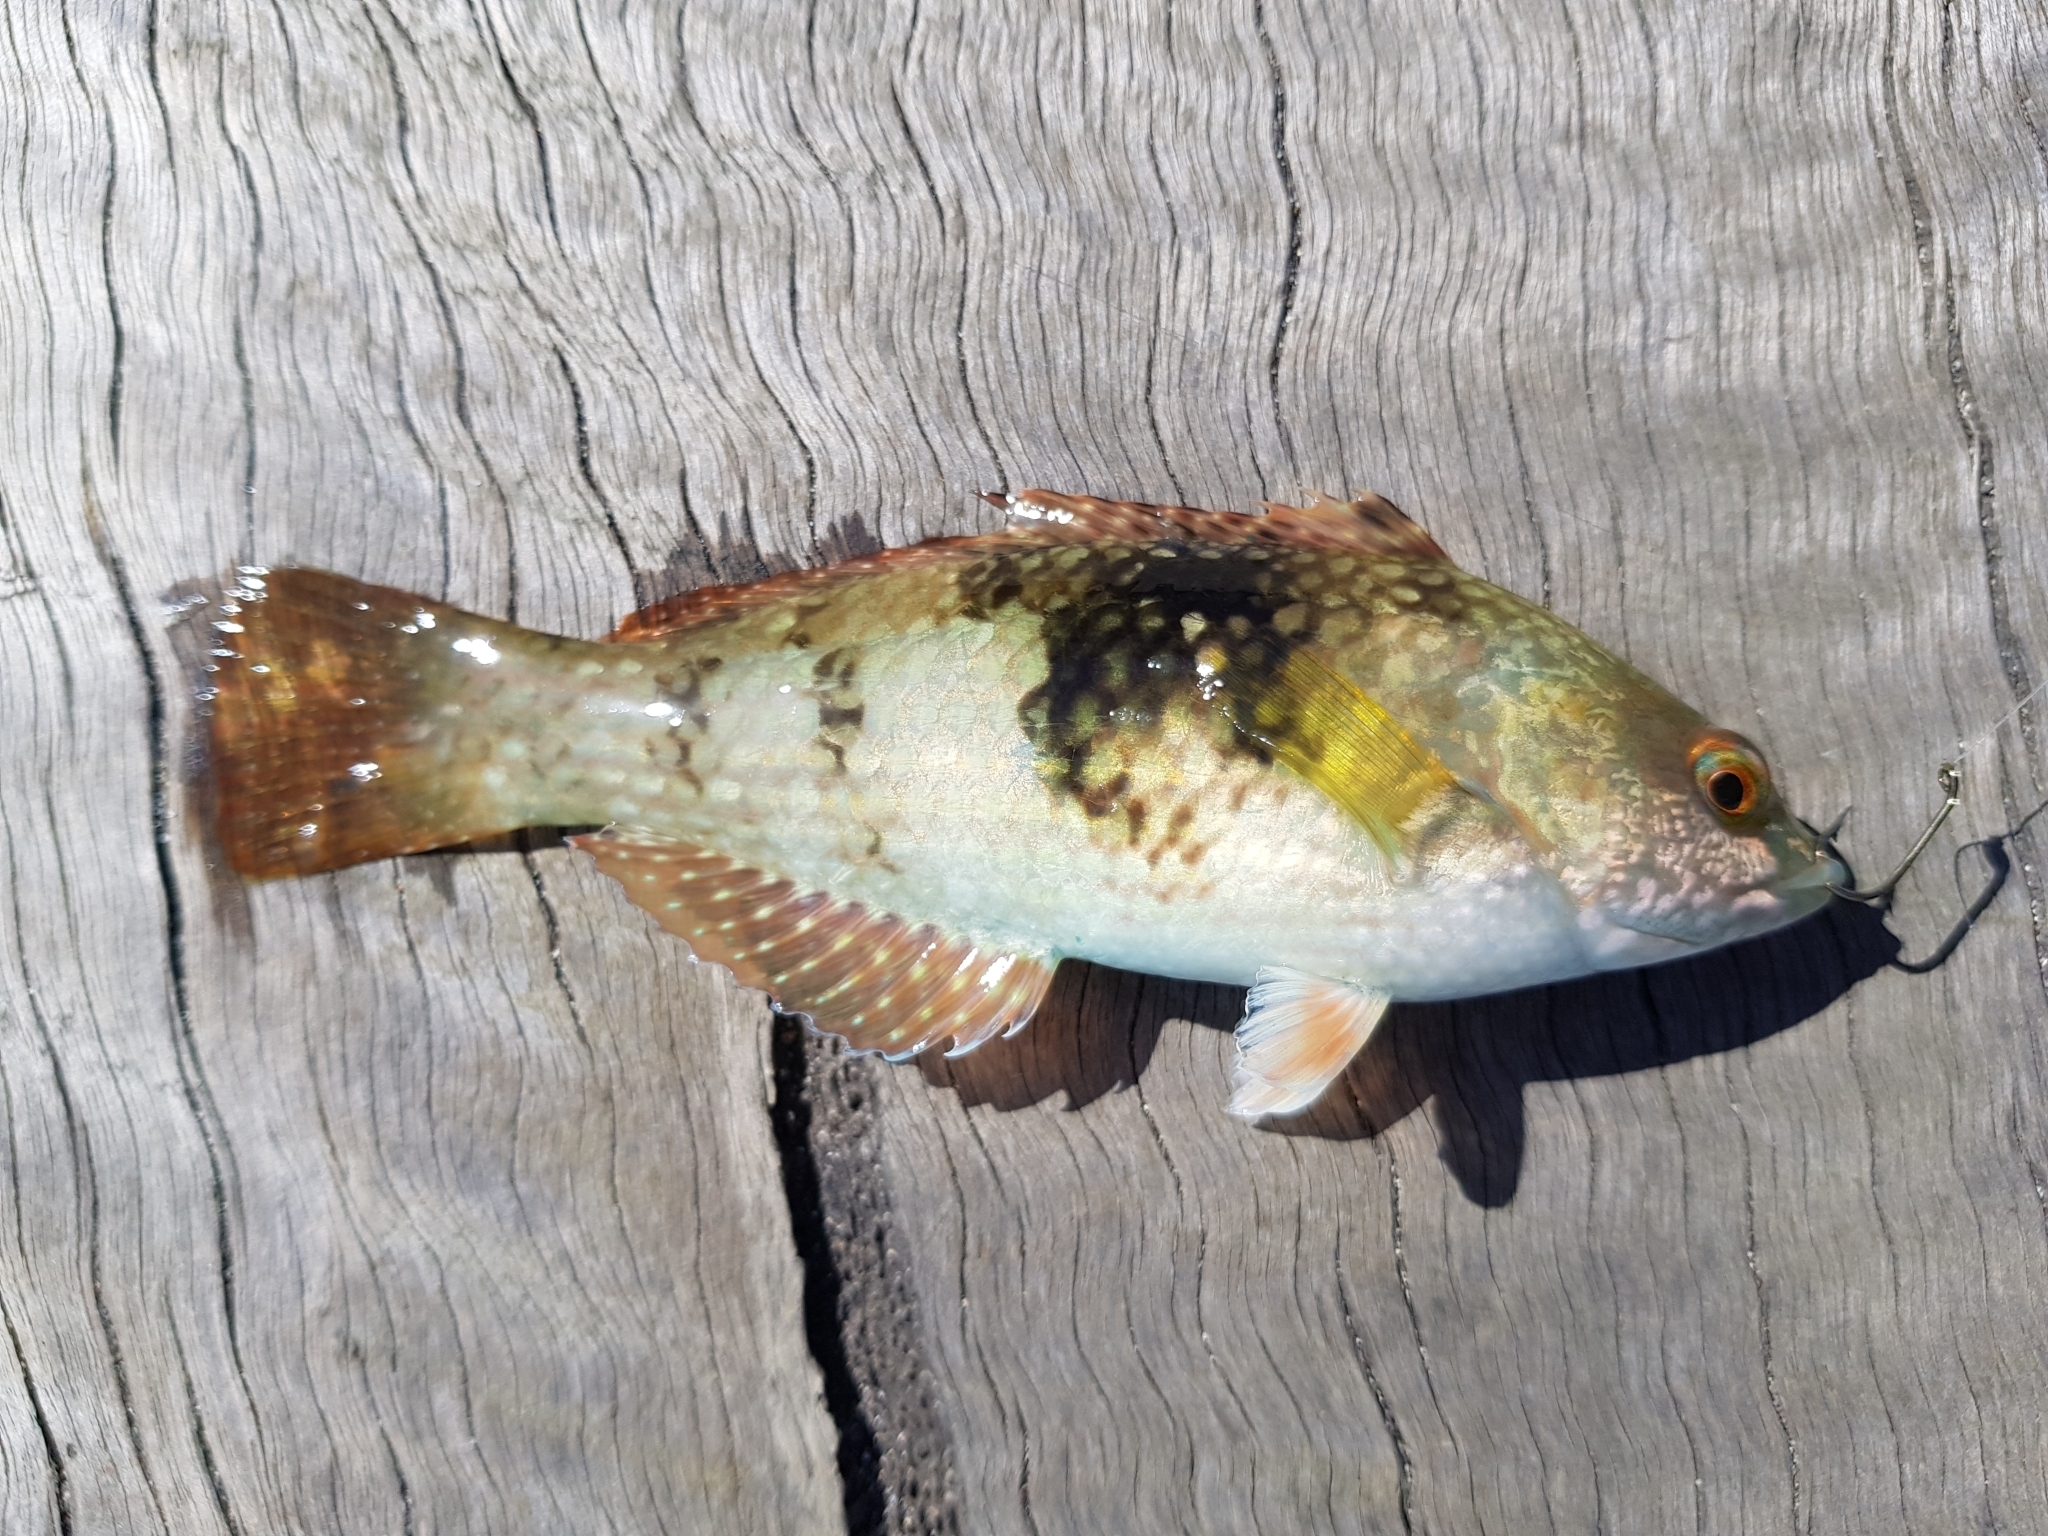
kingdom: Animalia
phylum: Chordata
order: Perciformes
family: Labridae
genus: Notolabrus
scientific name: Notolabrus tetricus
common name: Blue-throated parrotfish
